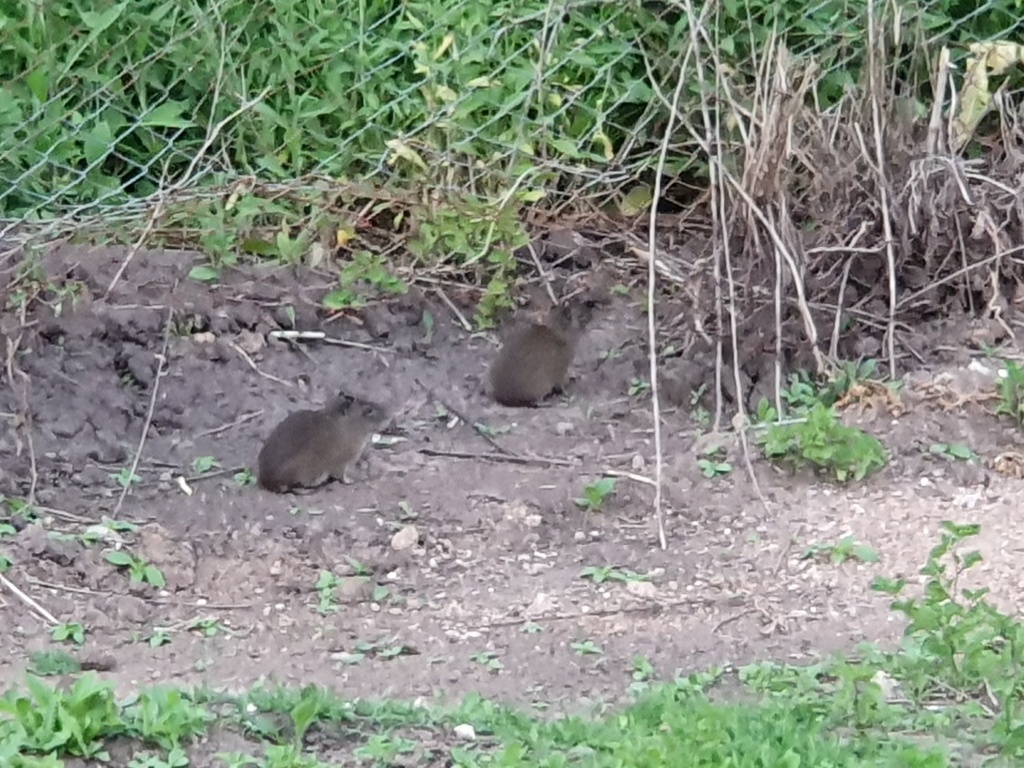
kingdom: Animalia
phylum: Chordata
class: Mammalia
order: Rodentia
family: Caviidae
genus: Cavia
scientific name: Cavia aperea
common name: Brazilian guinea pig
